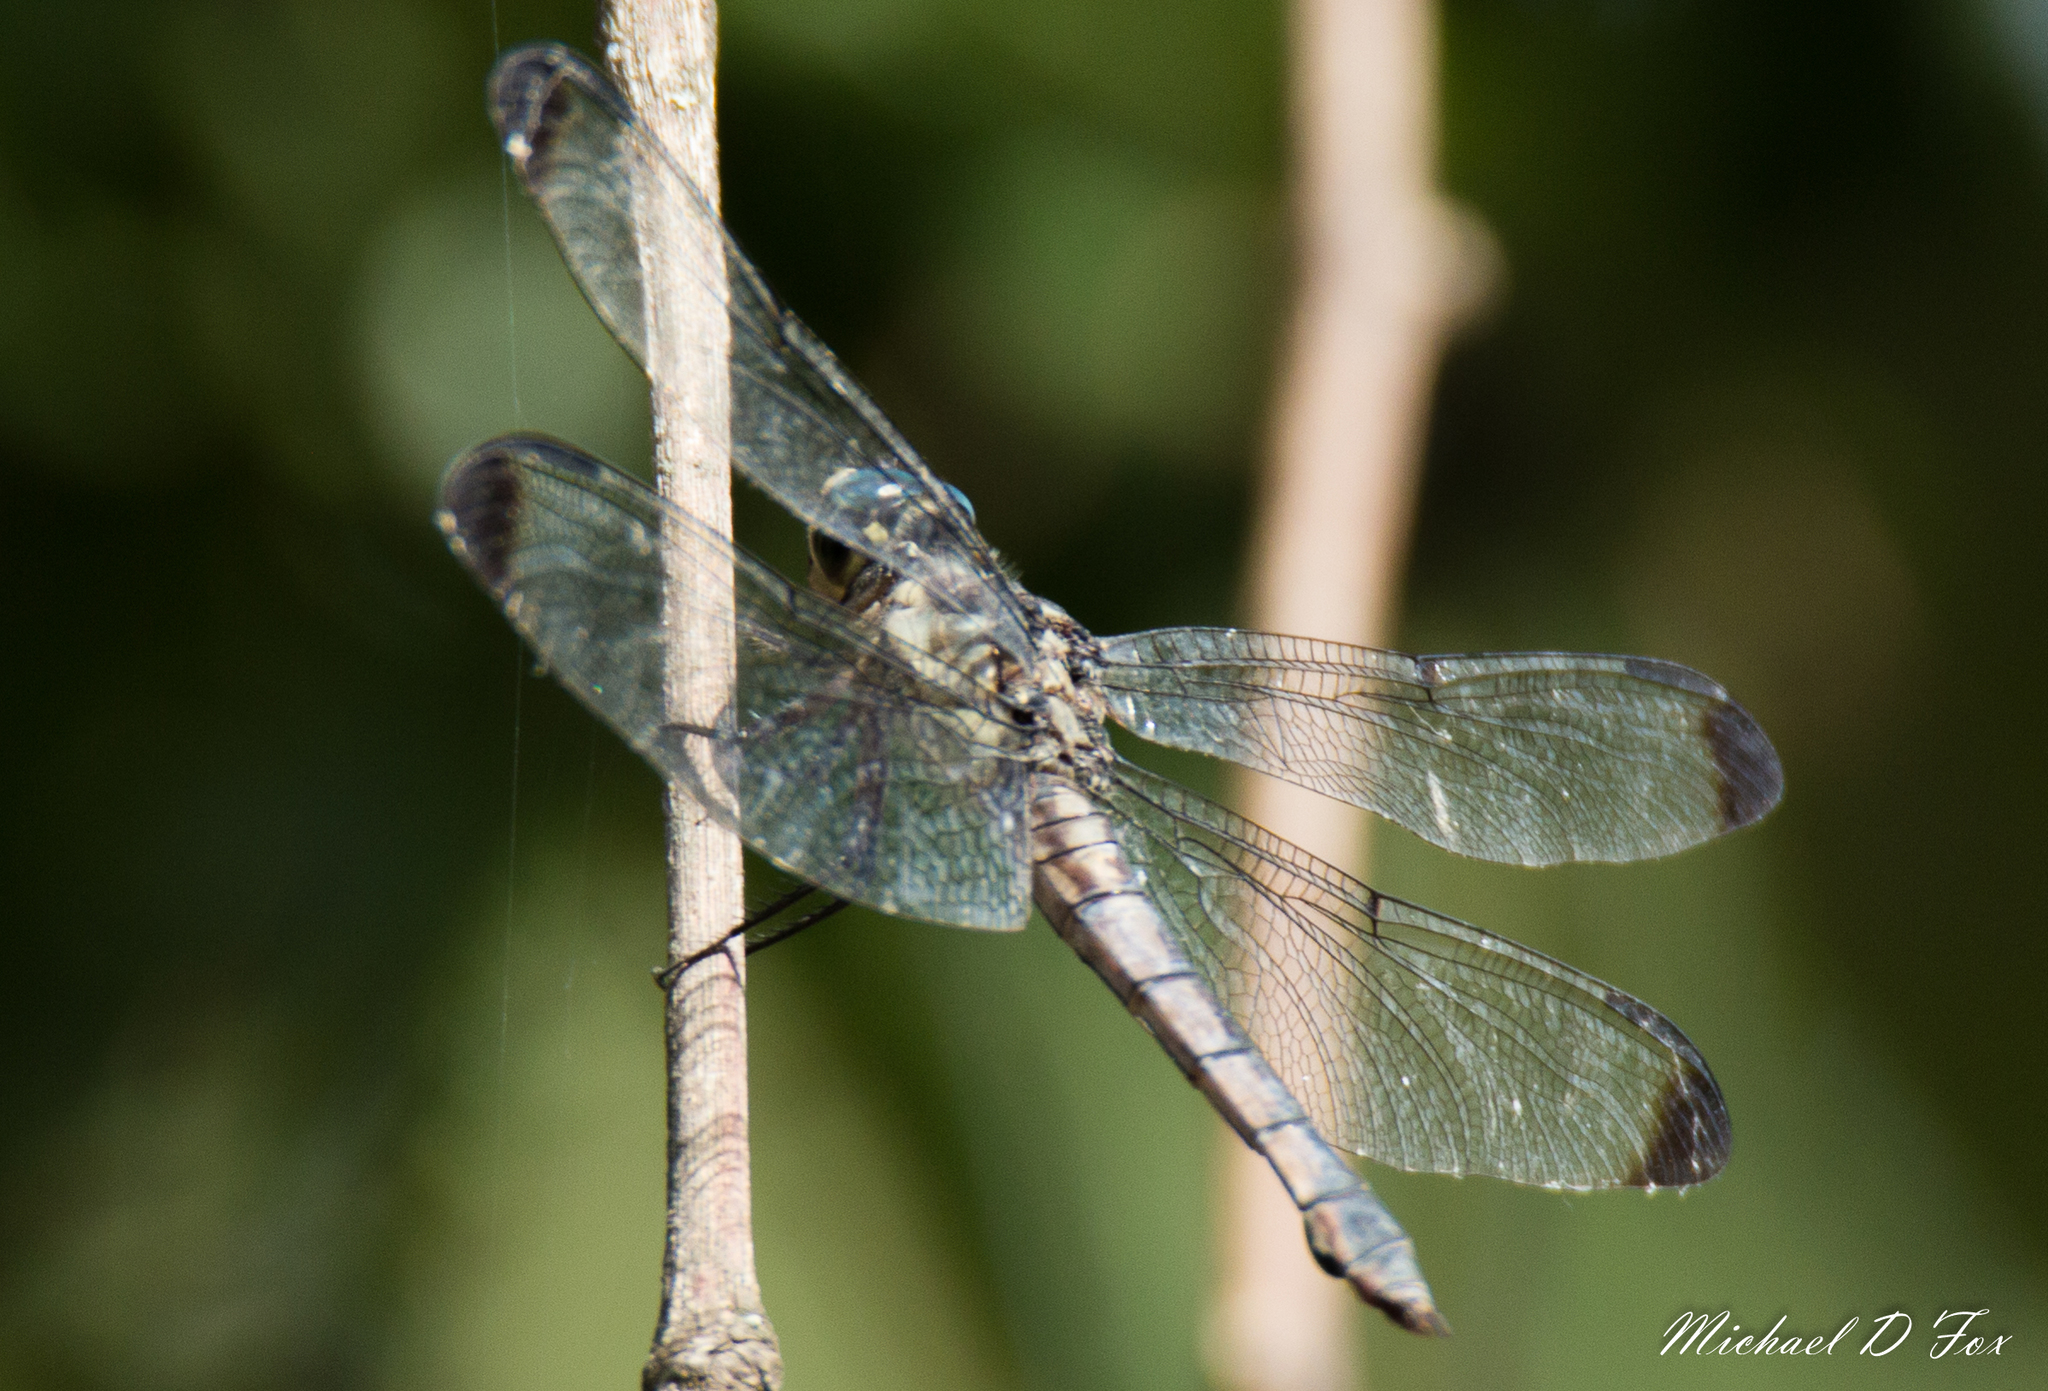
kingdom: Animalia
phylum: Arthropoda
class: Insecta
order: Odonata
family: Libellulidae
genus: Libellula
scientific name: Libellula vibrans
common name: Great blue skimmer
